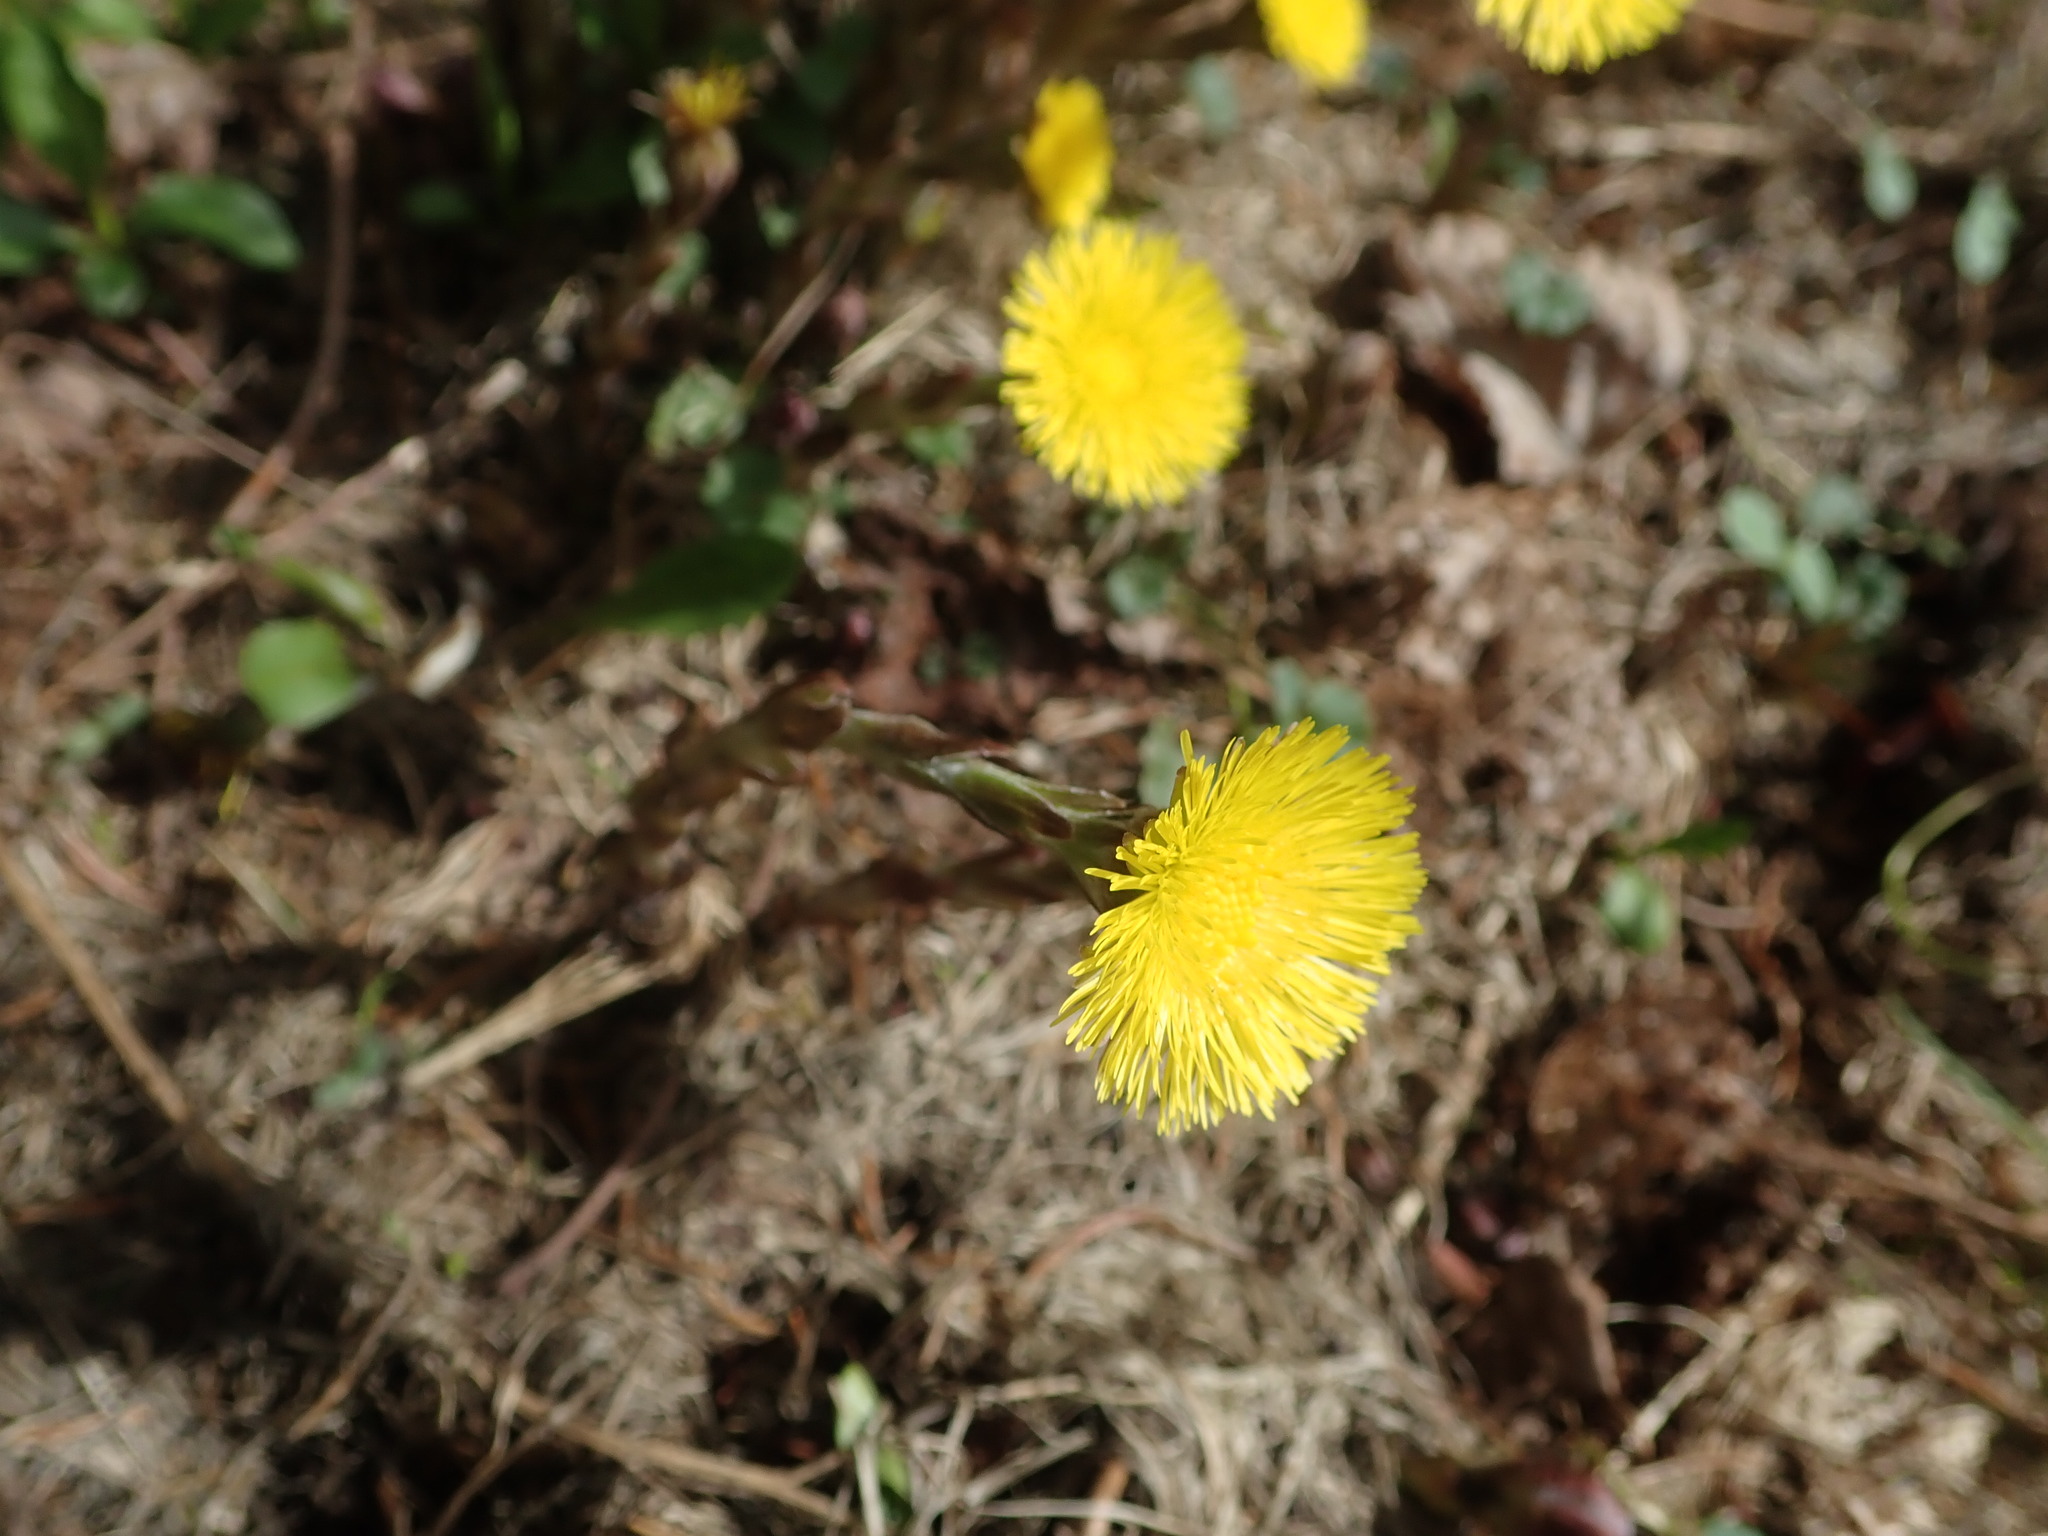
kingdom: Plantae
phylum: Tracheophyta
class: Magnoliopsida
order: Asterales
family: Asteraceae
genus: Tussilago
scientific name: Tussilago farfara
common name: Coltsfoot
